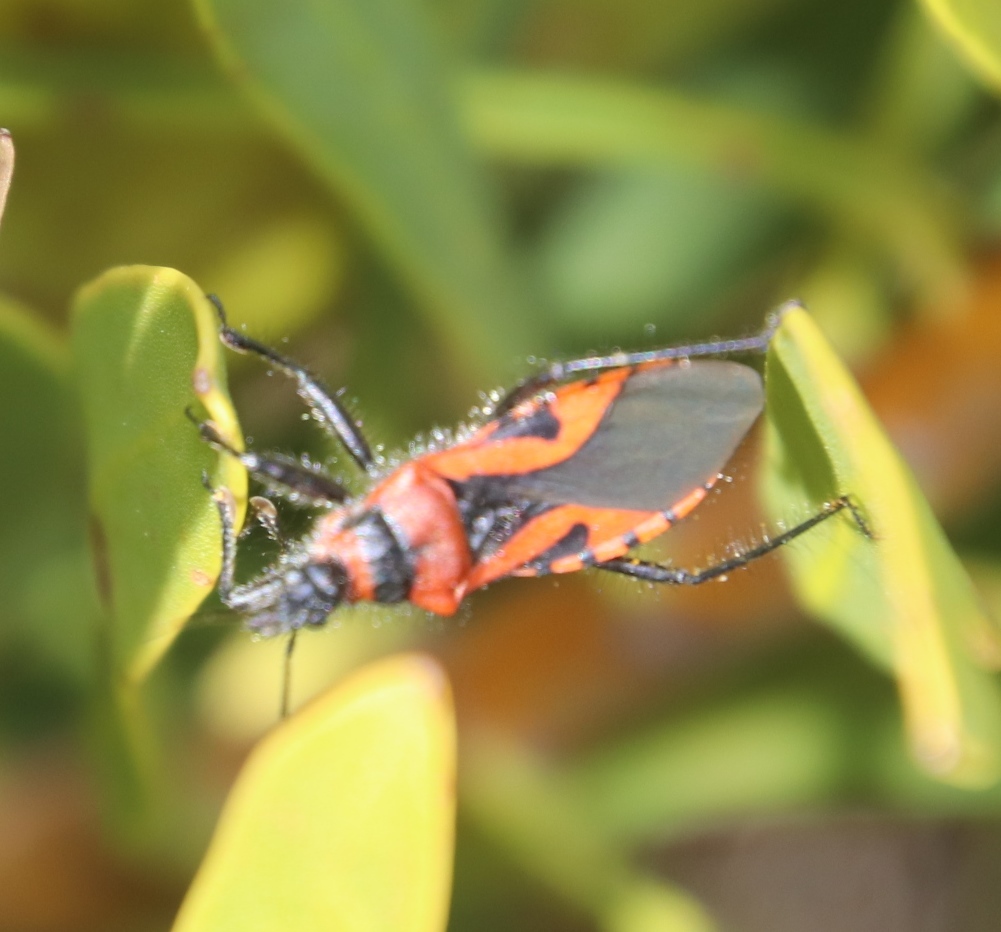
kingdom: Animalia
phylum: Arthropoda
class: Insecta
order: Hemiptera
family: Reduviidae
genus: Mardania
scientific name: Mardania sellata
